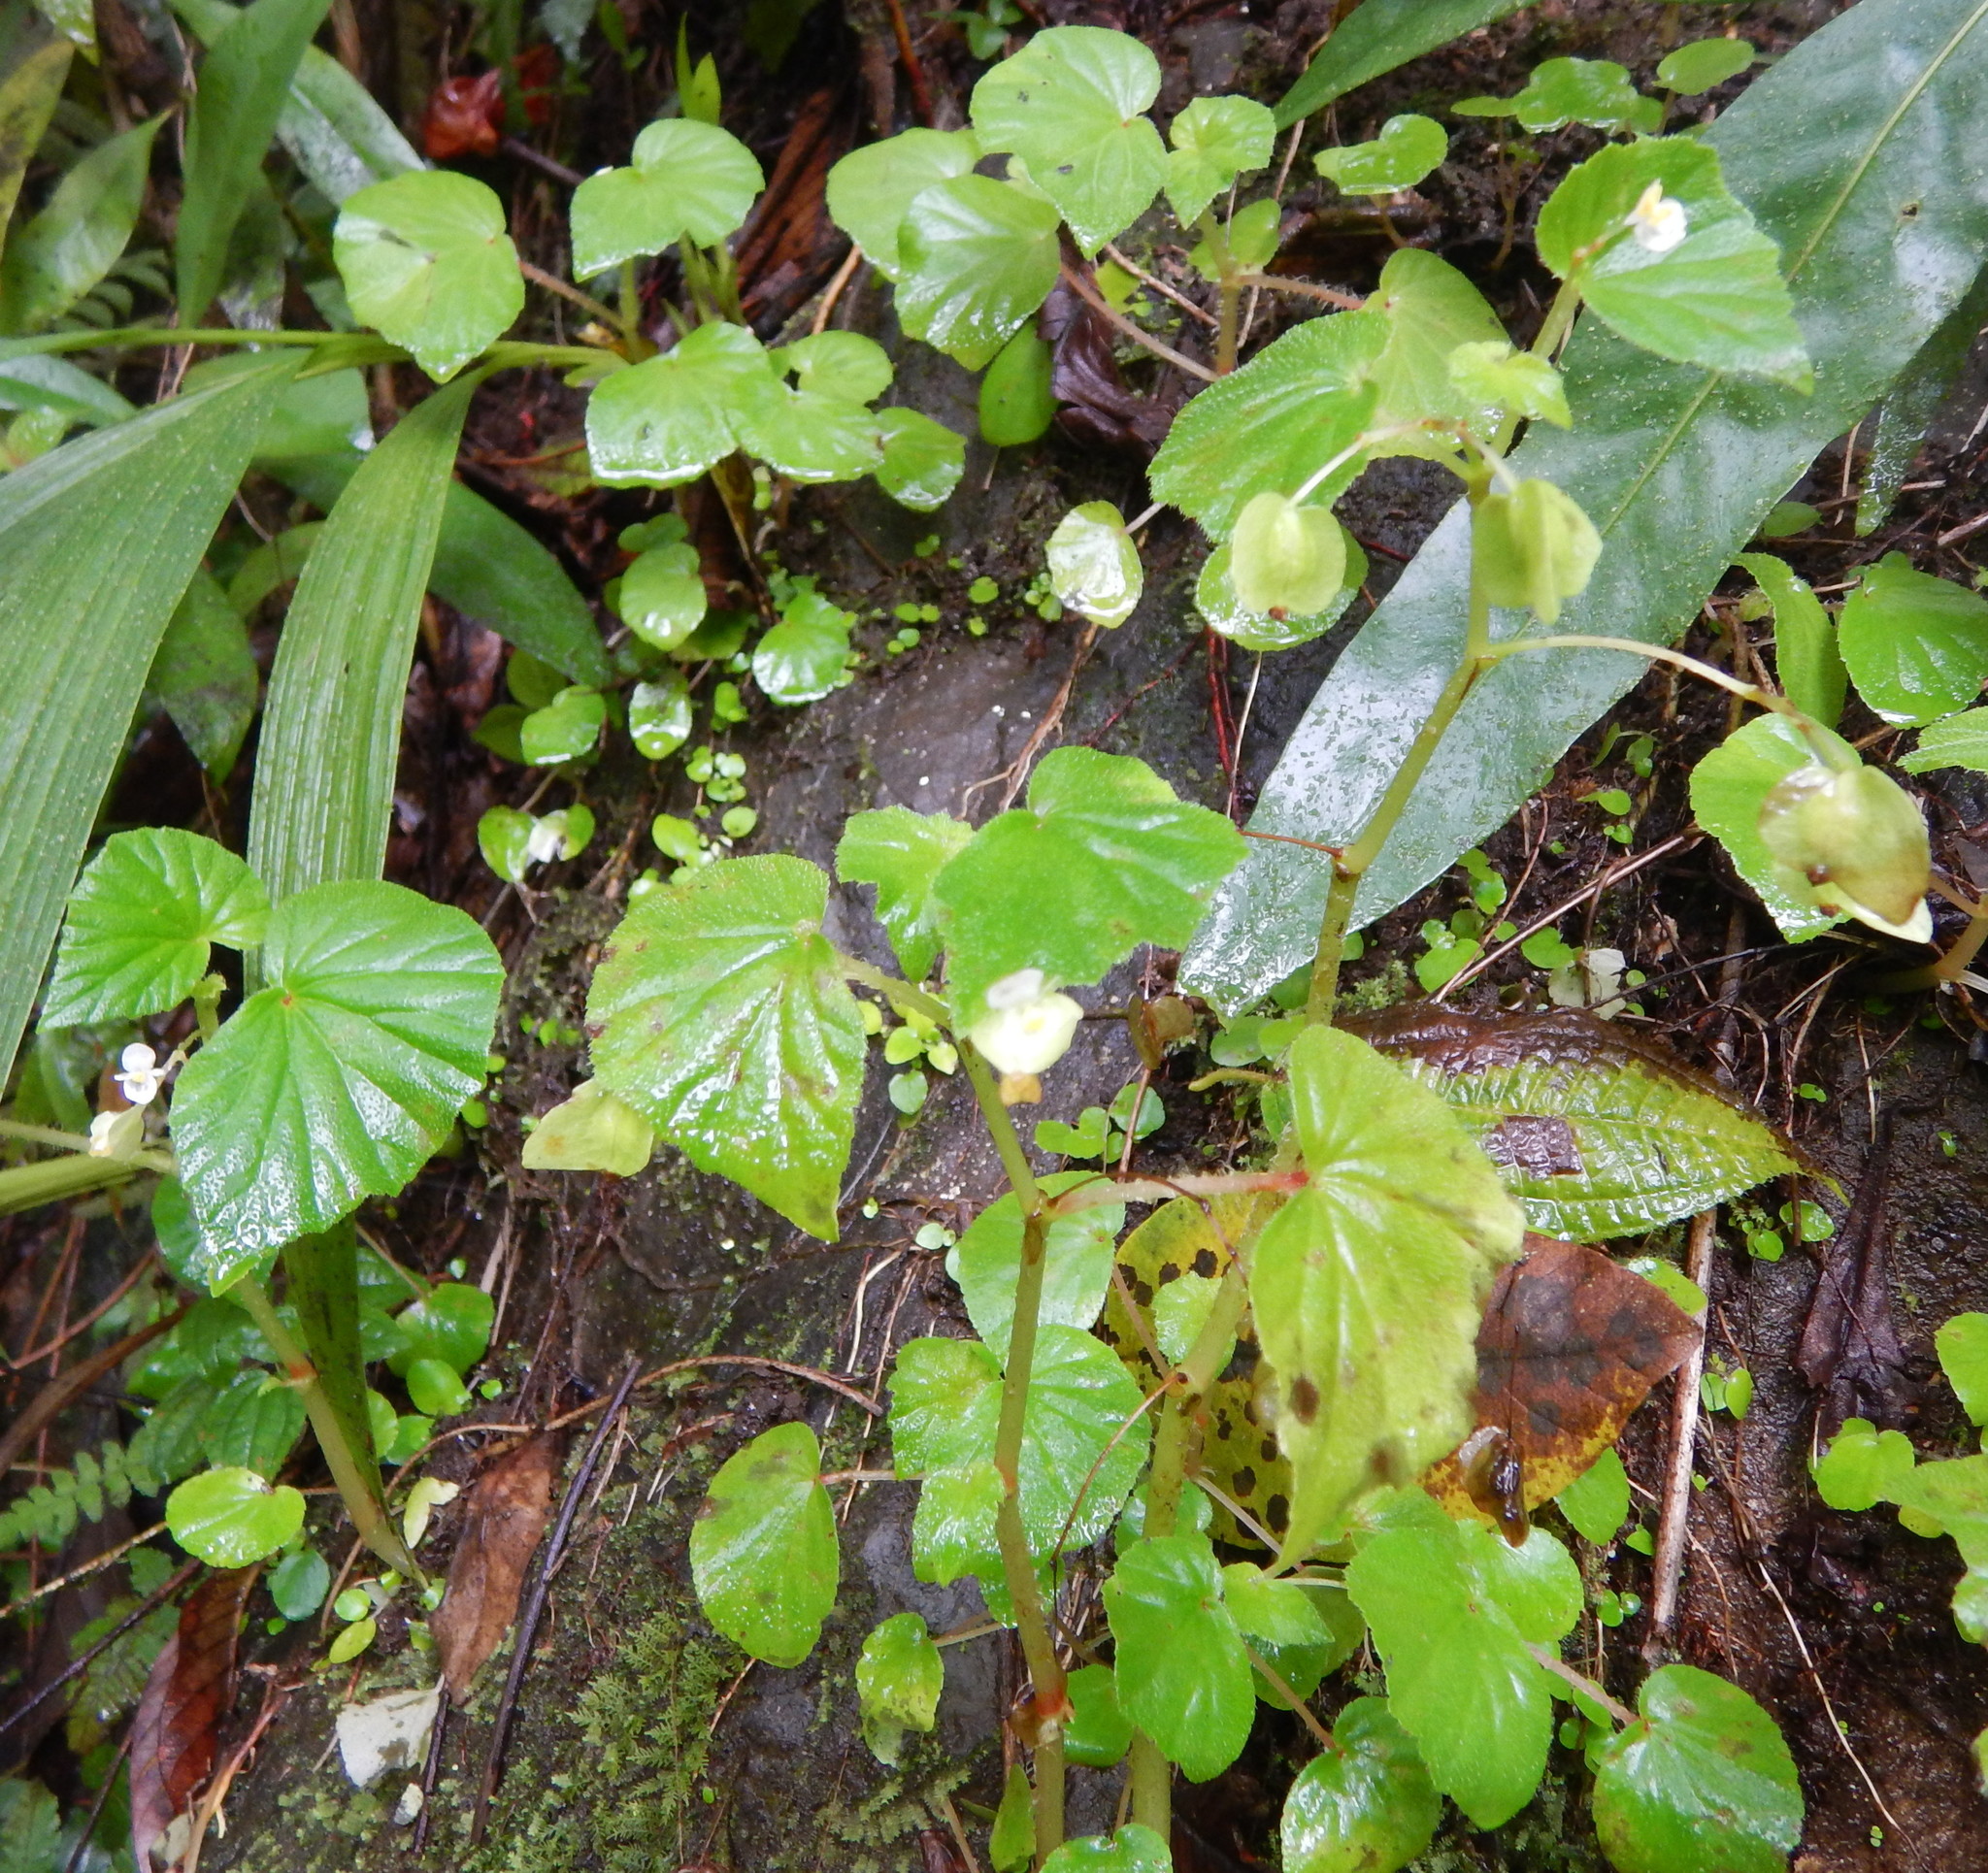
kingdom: Plantae
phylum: Tracheophyta
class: Magnoliopsida
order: Cucurbitales
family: Begoniaceae
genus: Begonia
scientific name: Begonia hirtella
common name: Brazilian begonia
